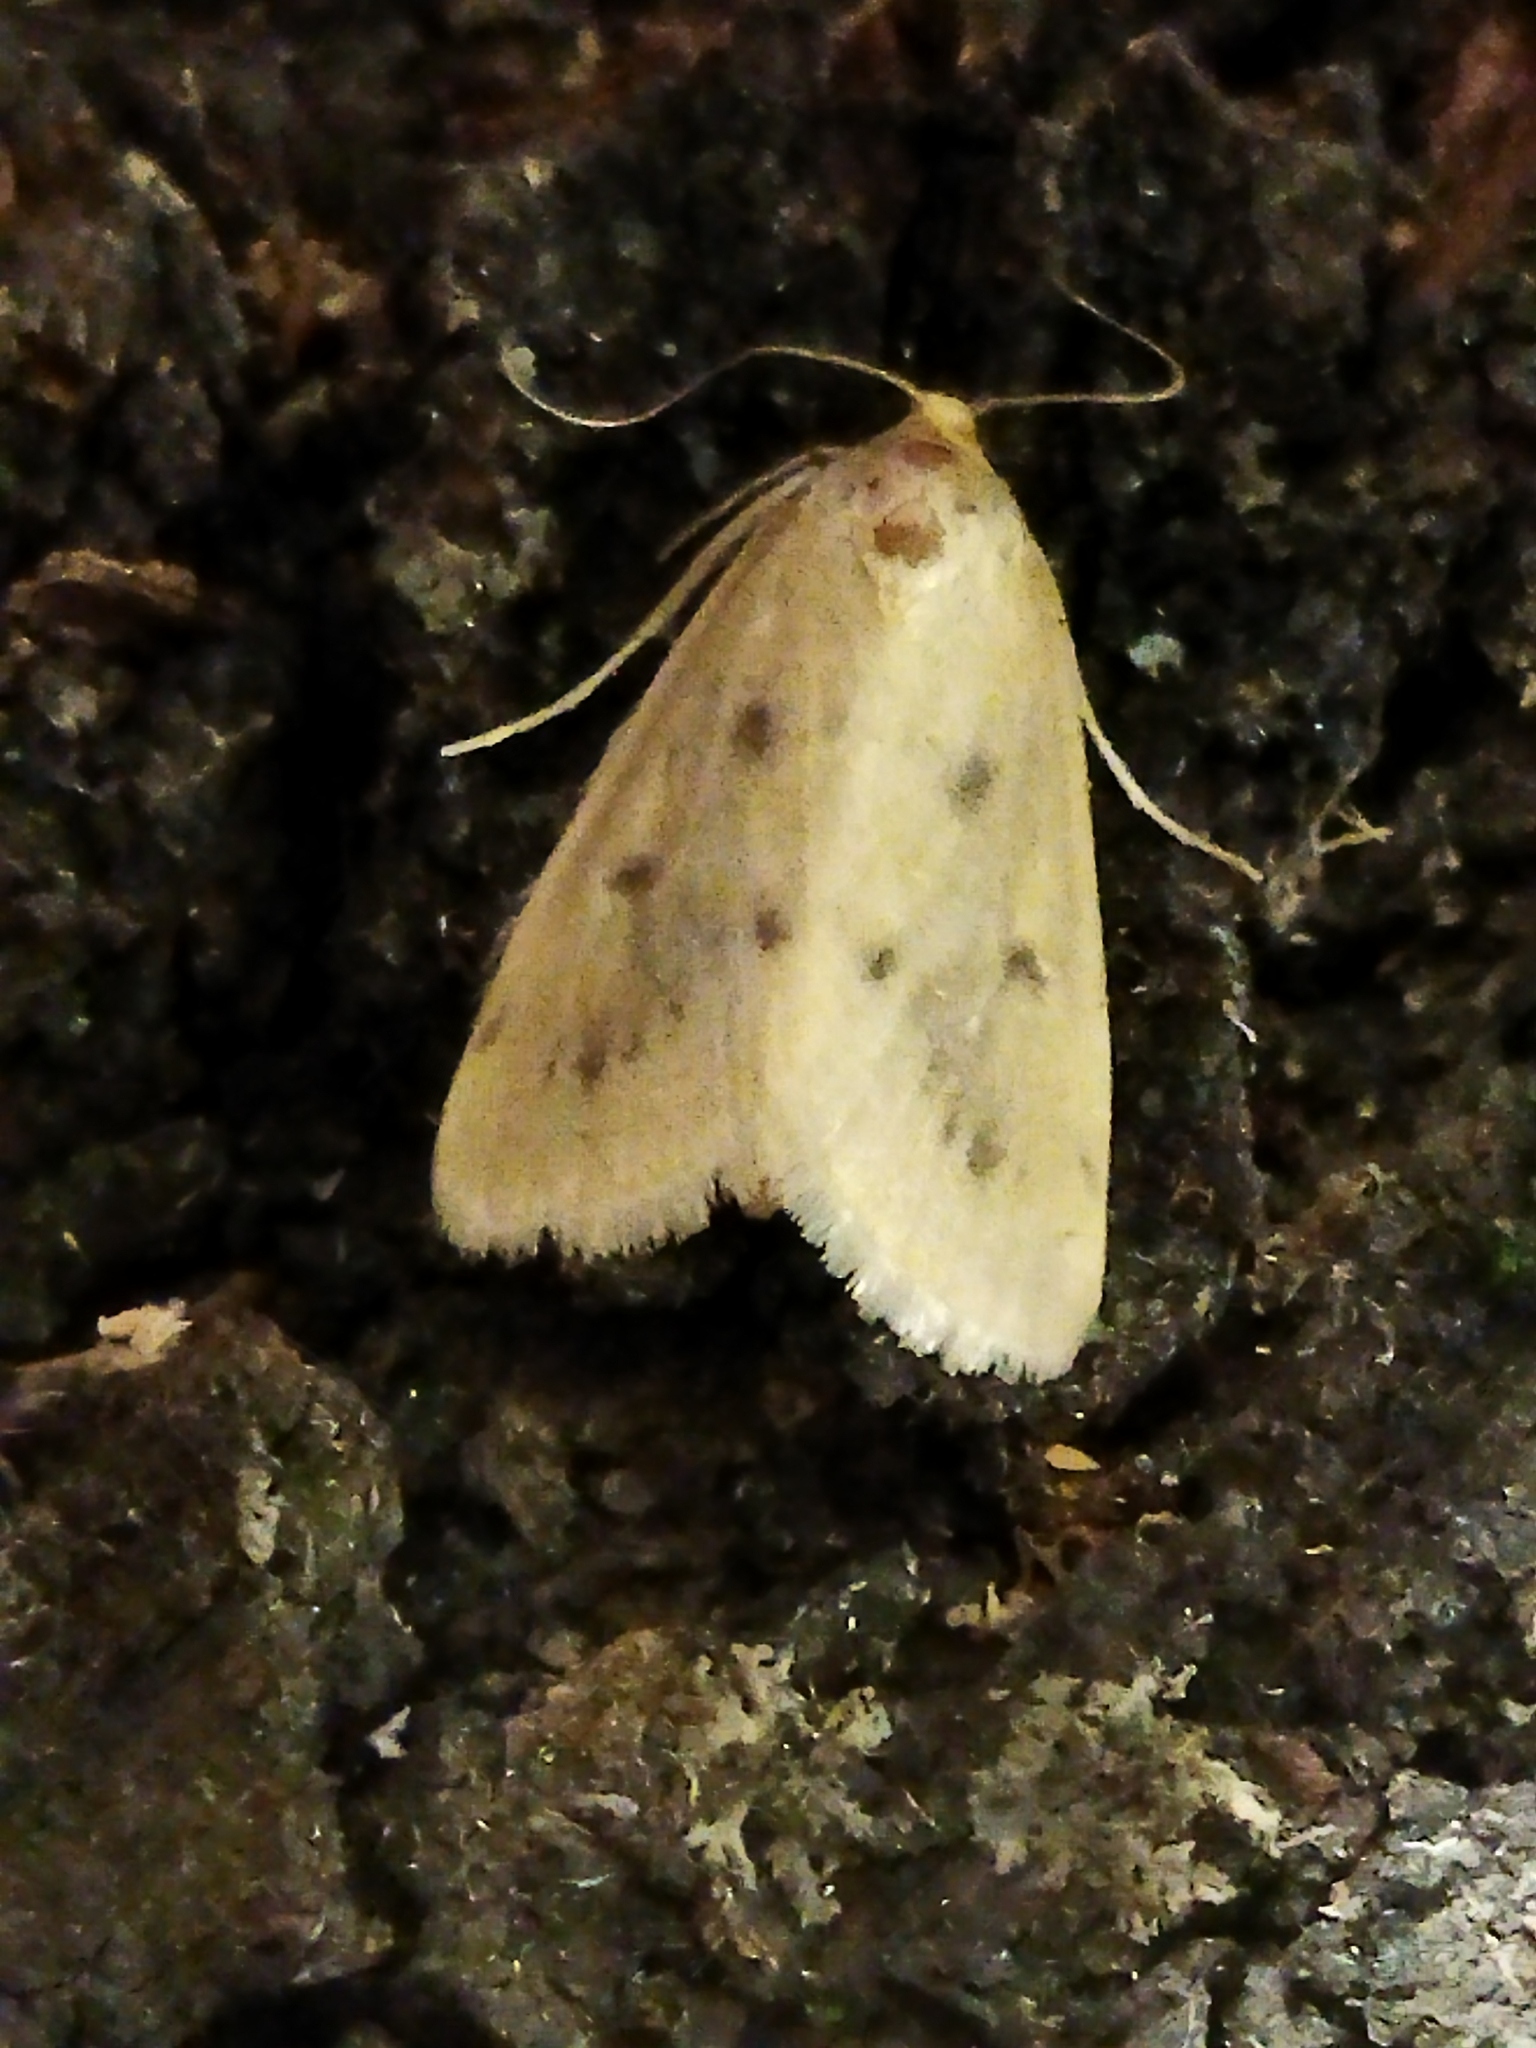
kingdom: Animalia
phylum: Arthropoda
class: Insecta
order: Lepidoptera
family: Crambidae
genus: Achyra
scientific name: Achyra nudalis
